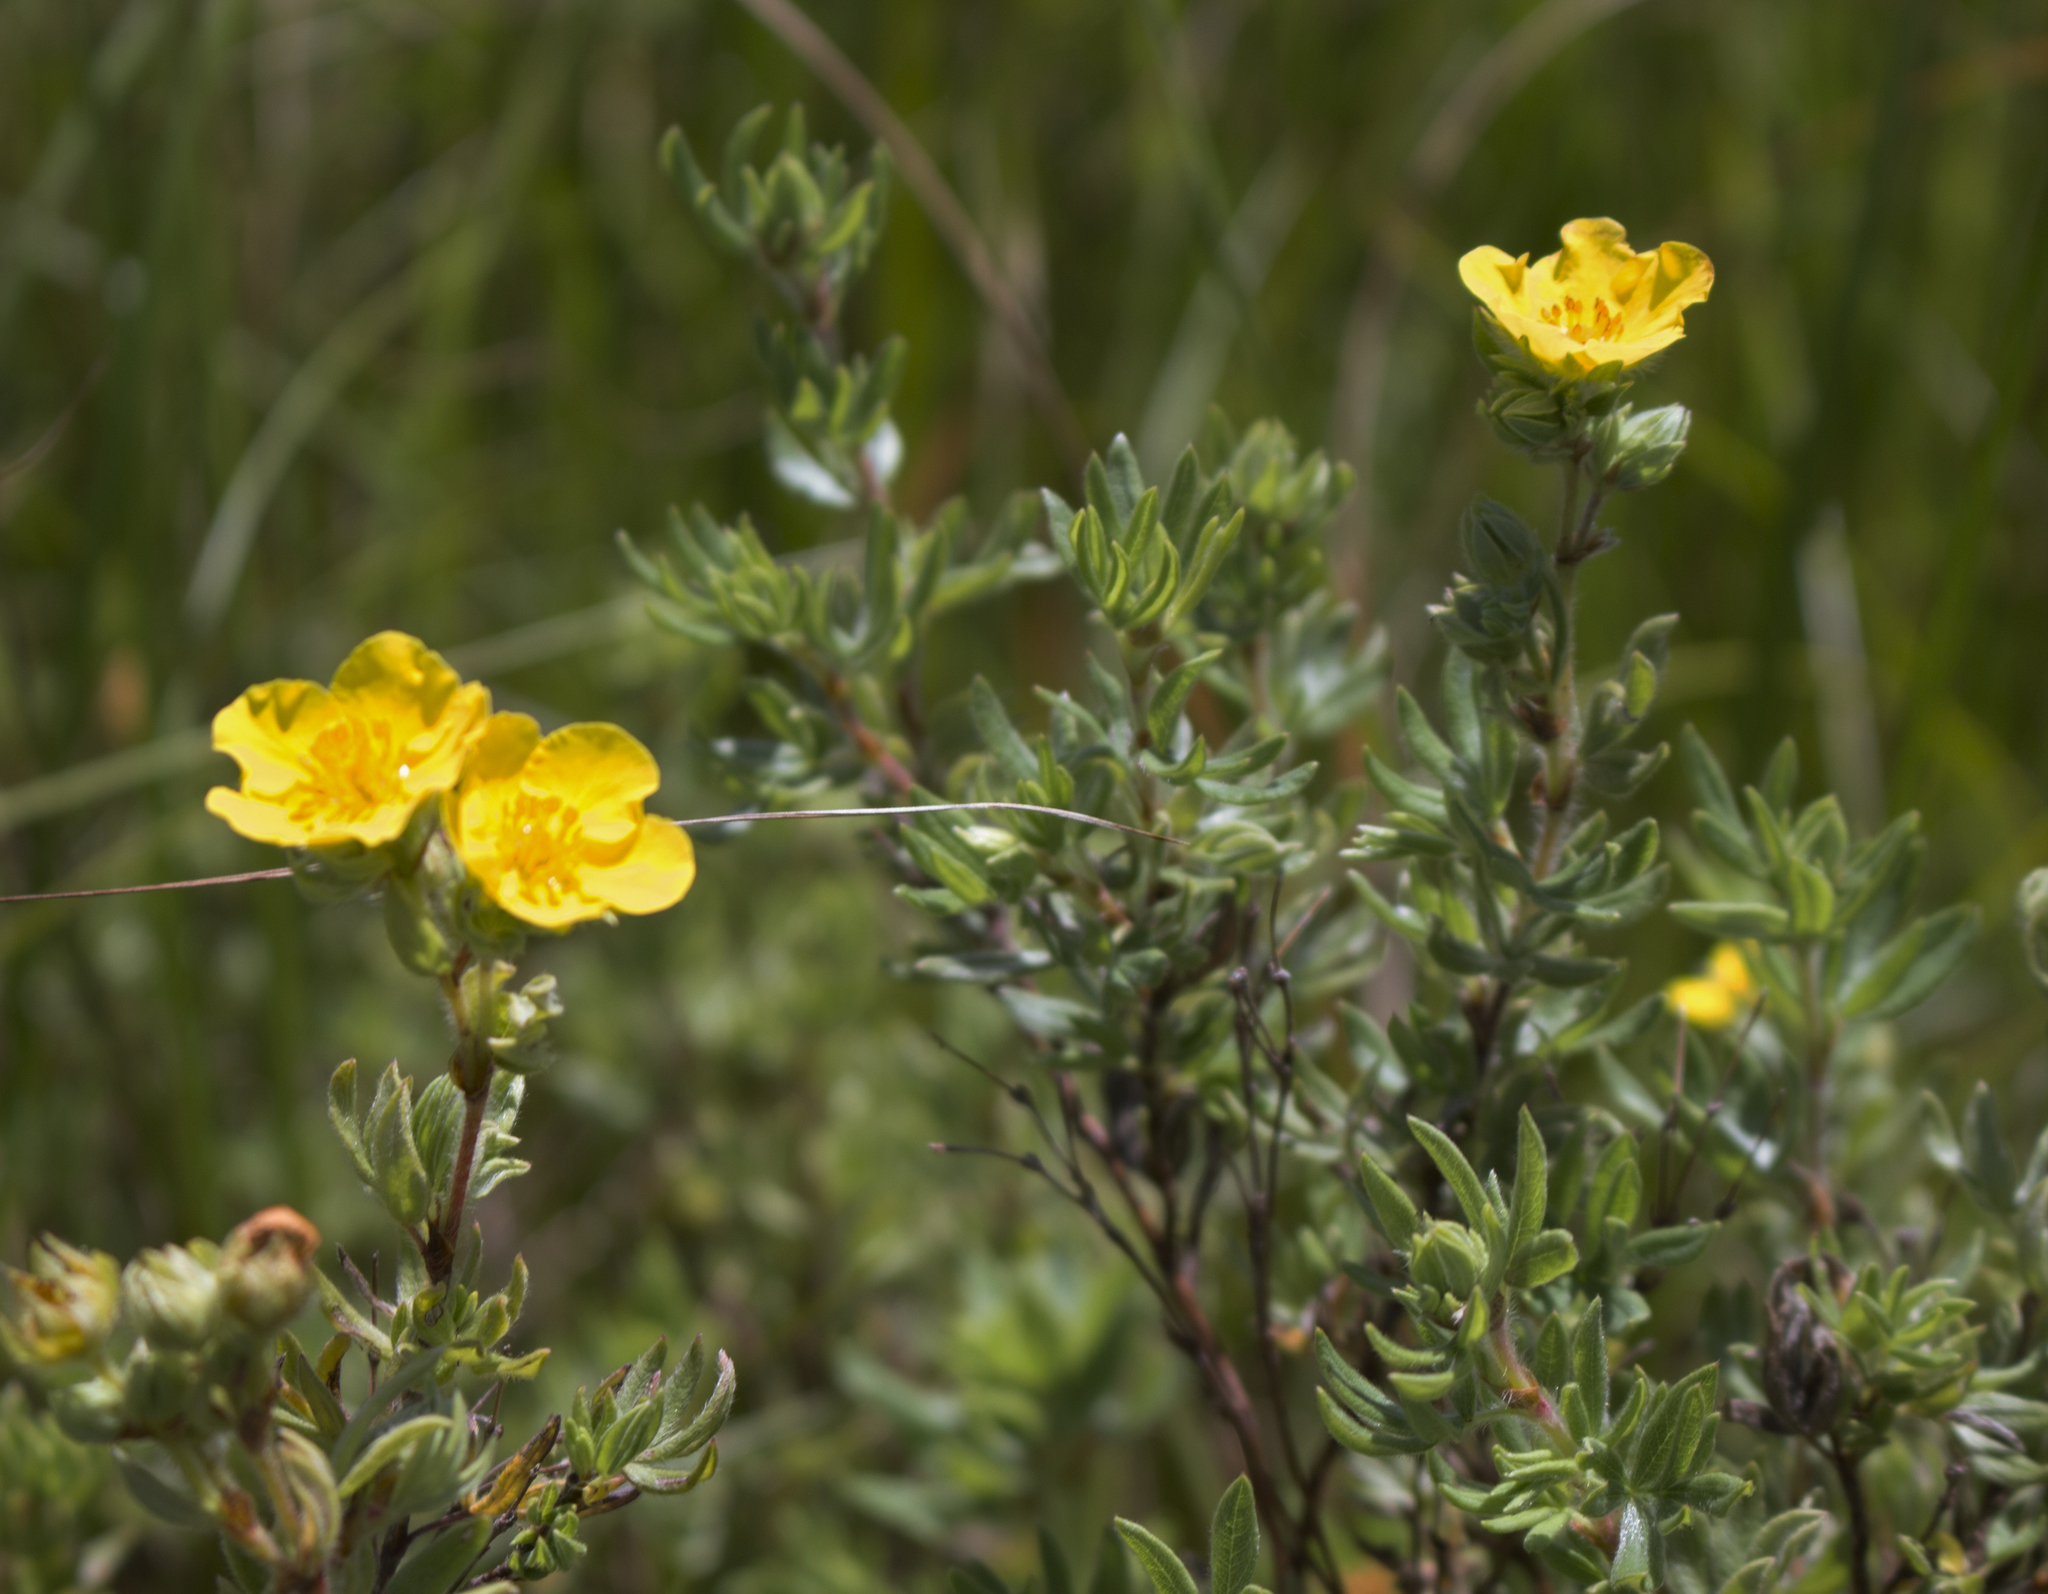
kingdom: Plantae
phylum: Tracheophyta
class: Magnoliopsida
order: Rosales
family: Rosaceae
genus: Dasiphora
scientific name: Dasiphora fruticosa
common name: Shrubby cinquefoil
